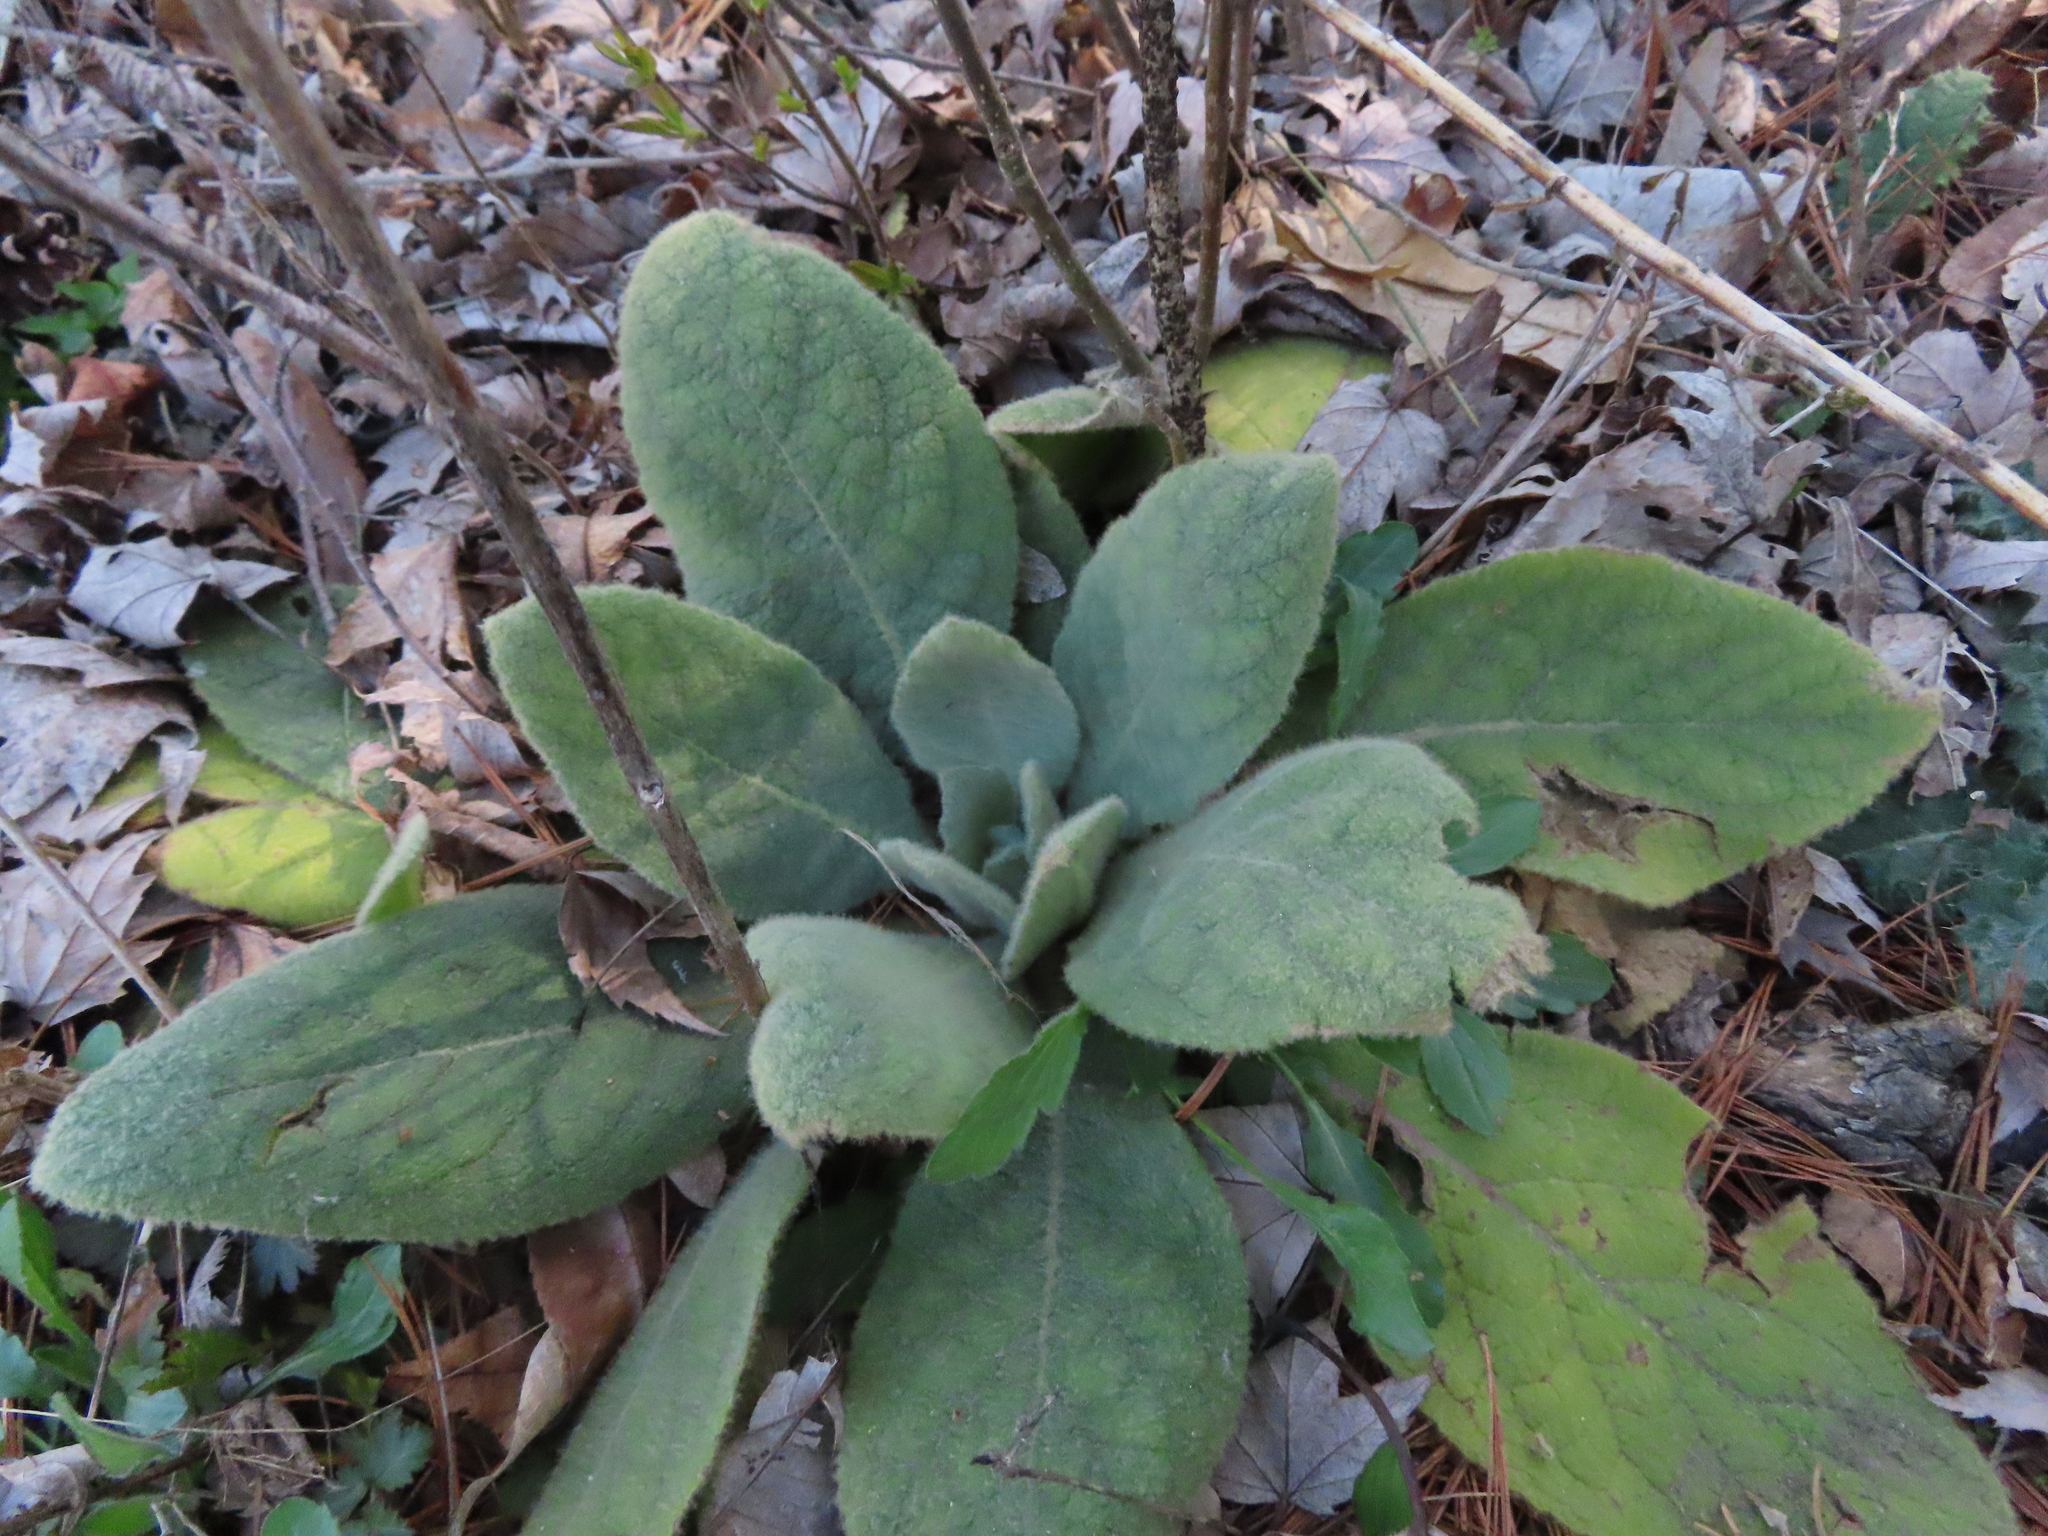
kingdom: Plantae
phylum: Tracheophyta
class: Magnoliopsida
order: Lamiales
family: Scrophulariaceae
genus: Verbascum
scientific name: Verbascum thapsus
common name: Common mullein
